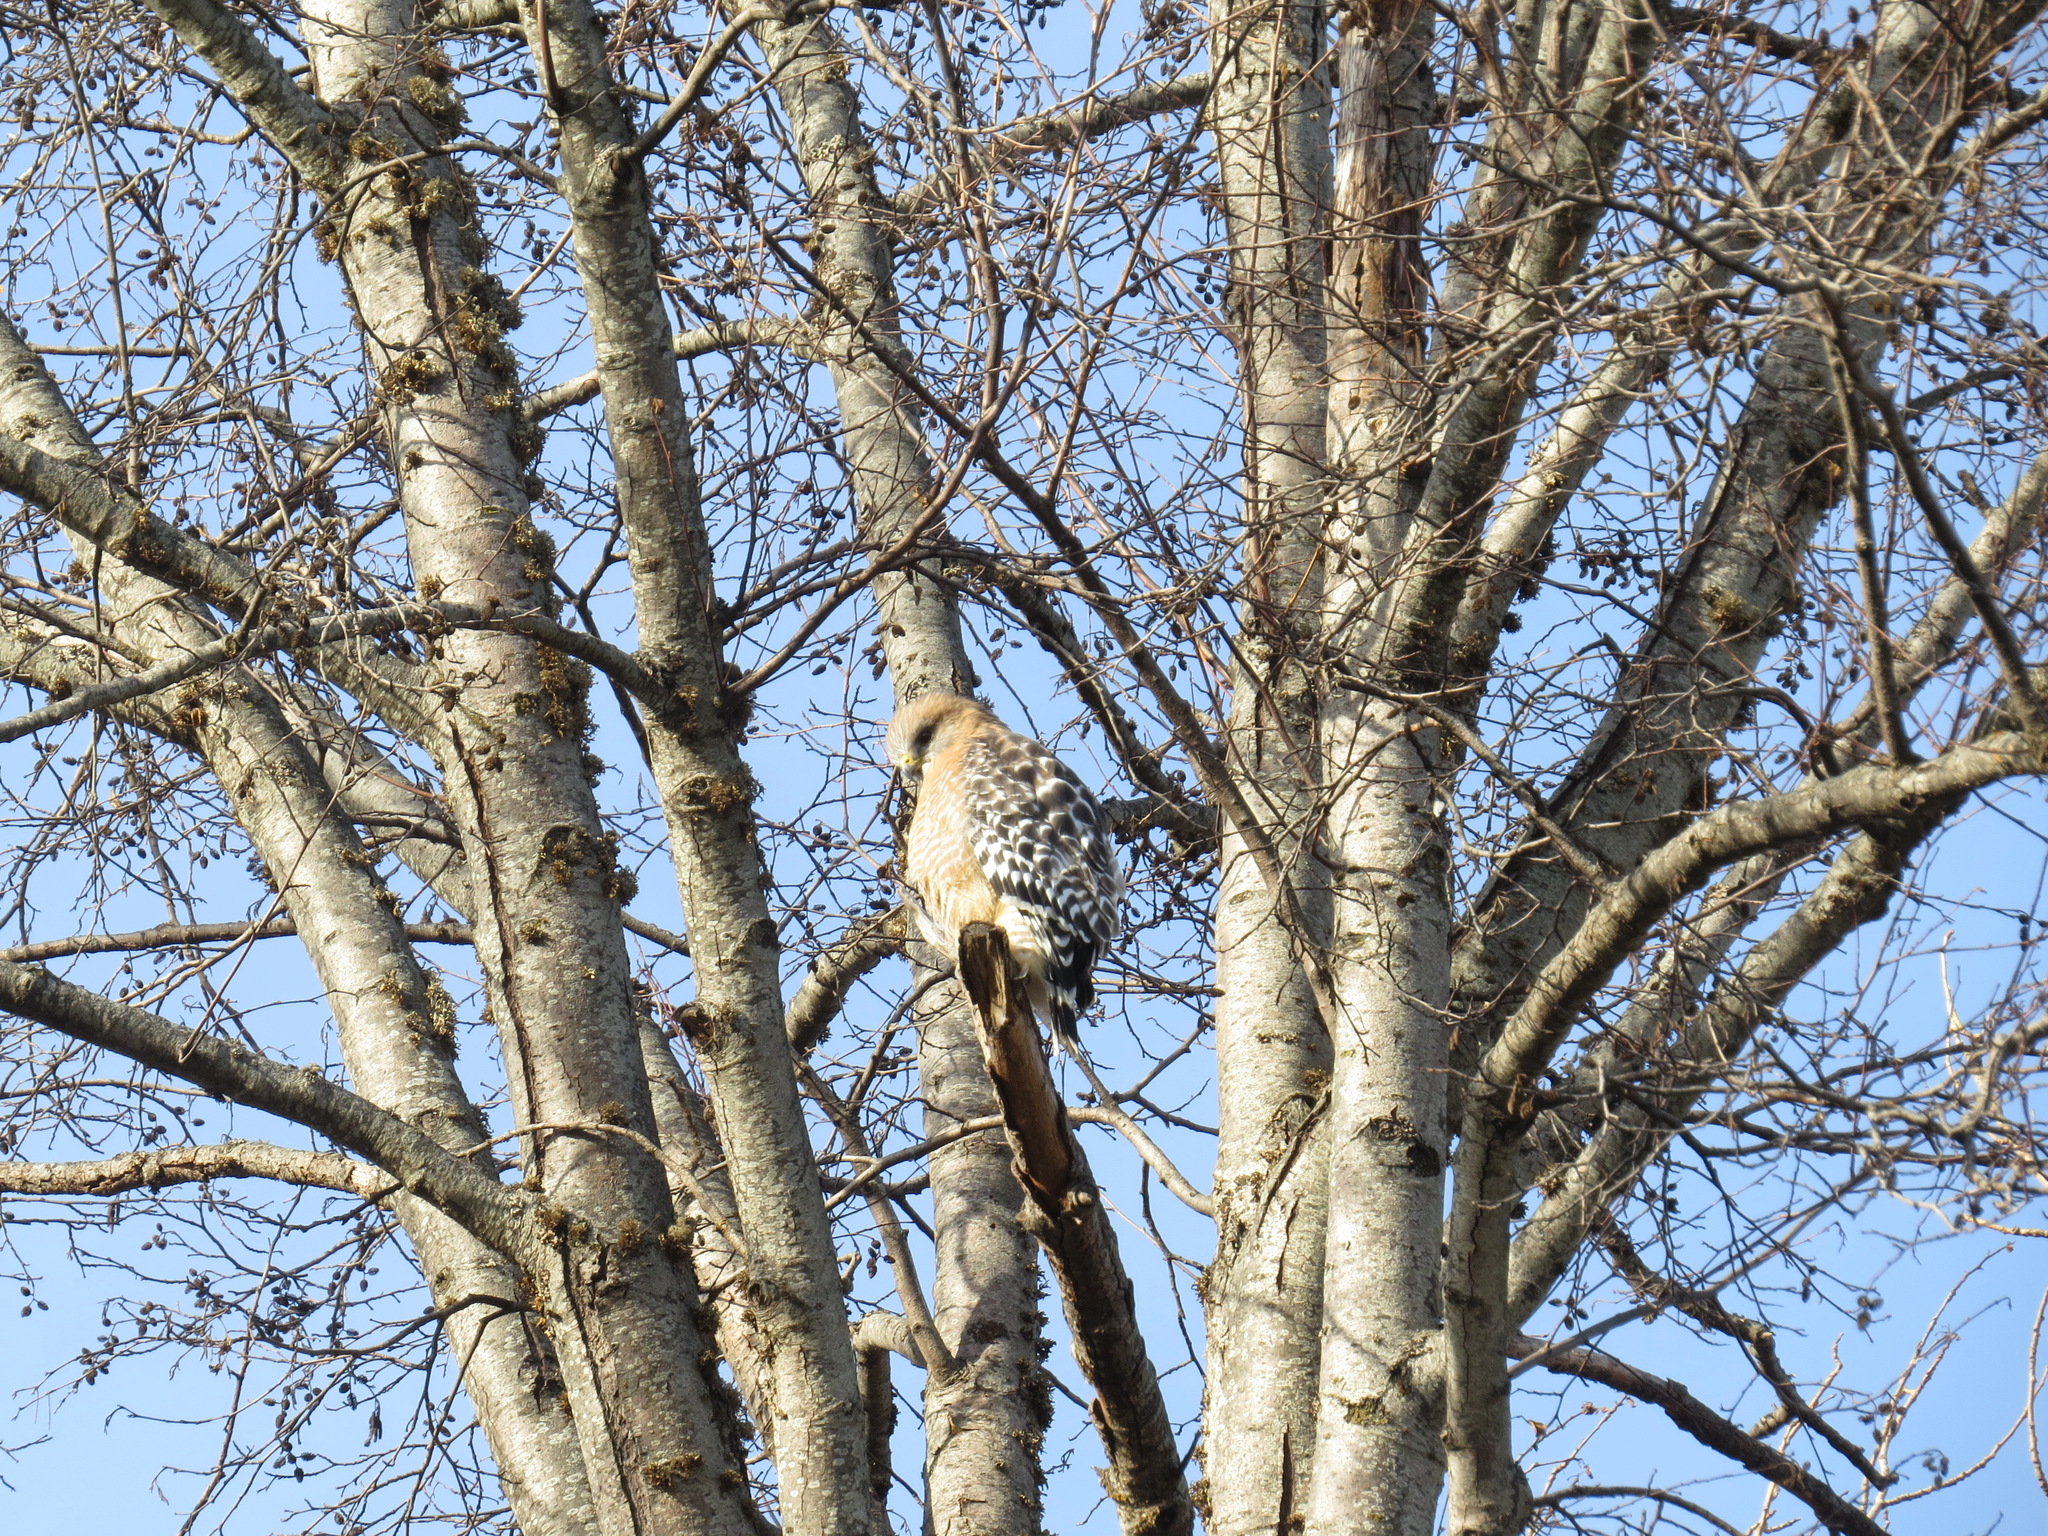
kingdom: Animalia
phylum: Chordata
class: Aves
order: Accipitriformes
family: Accipitridae
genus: Buteo
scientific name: Buteo lineatus
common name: Red-shouldered hawk
